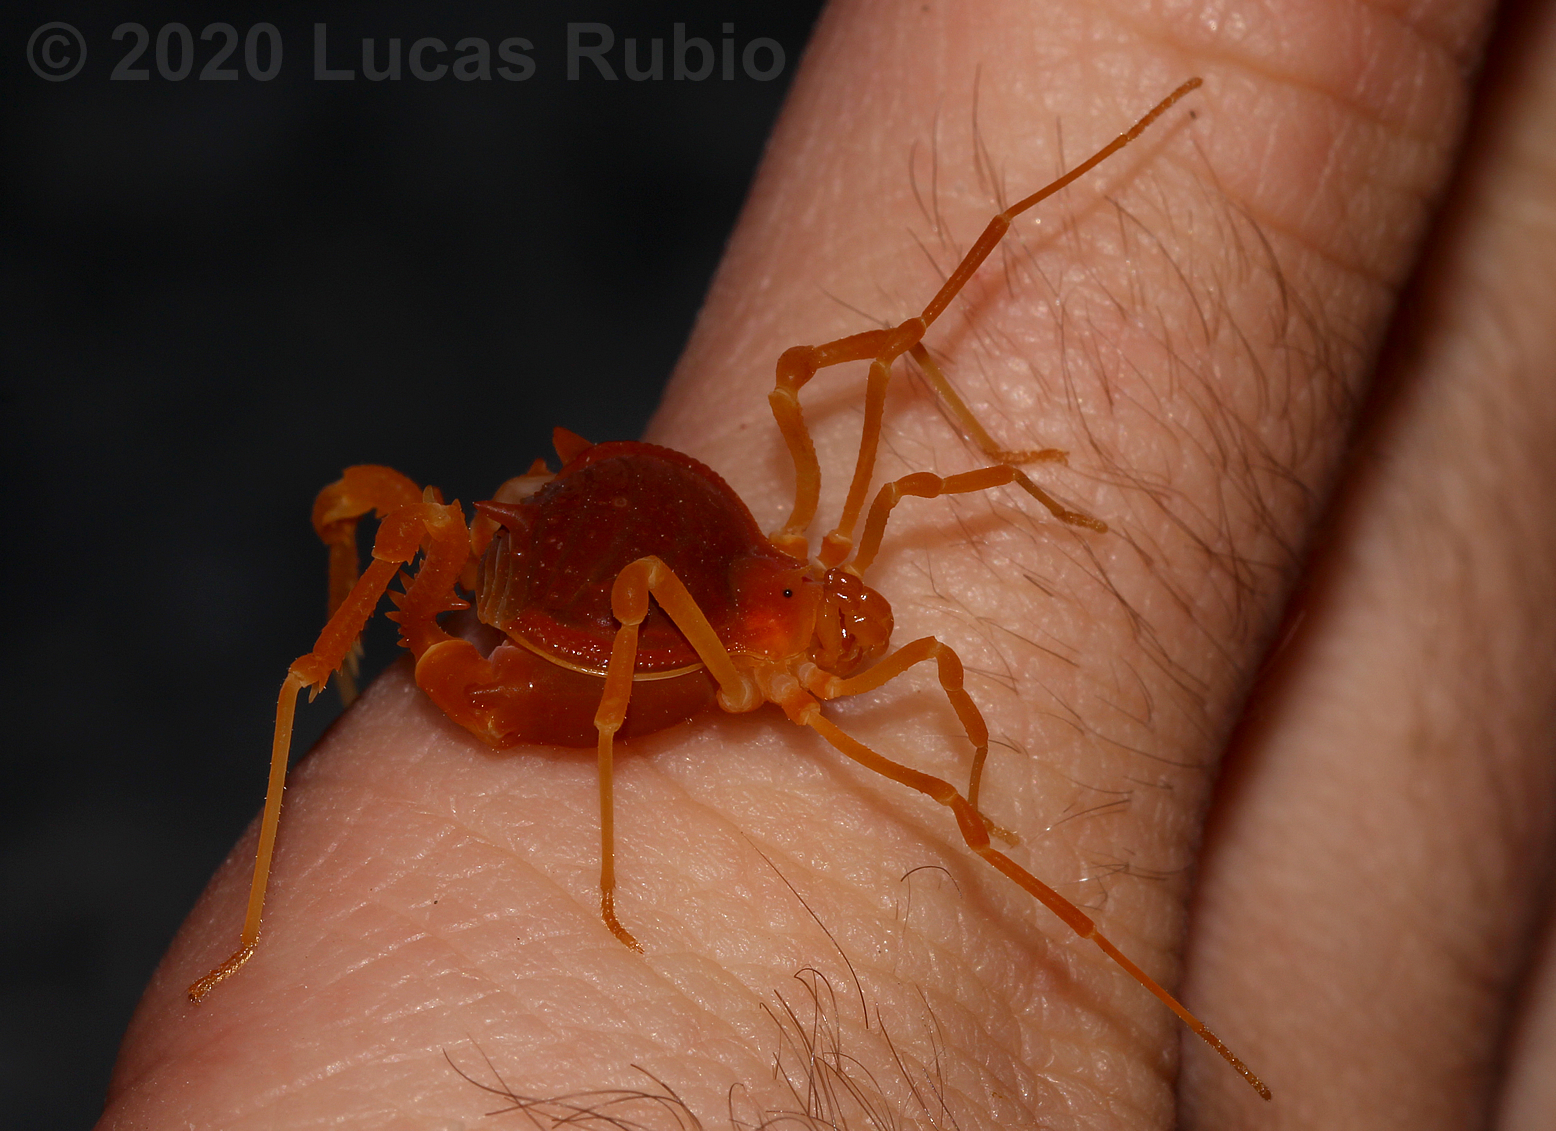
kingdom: Animalia
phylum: Arthropoda
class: Arachnida
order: Opiliones
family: Gonyleptidae
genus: Acanthopachylus
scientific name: Acanthopachylus robustus
